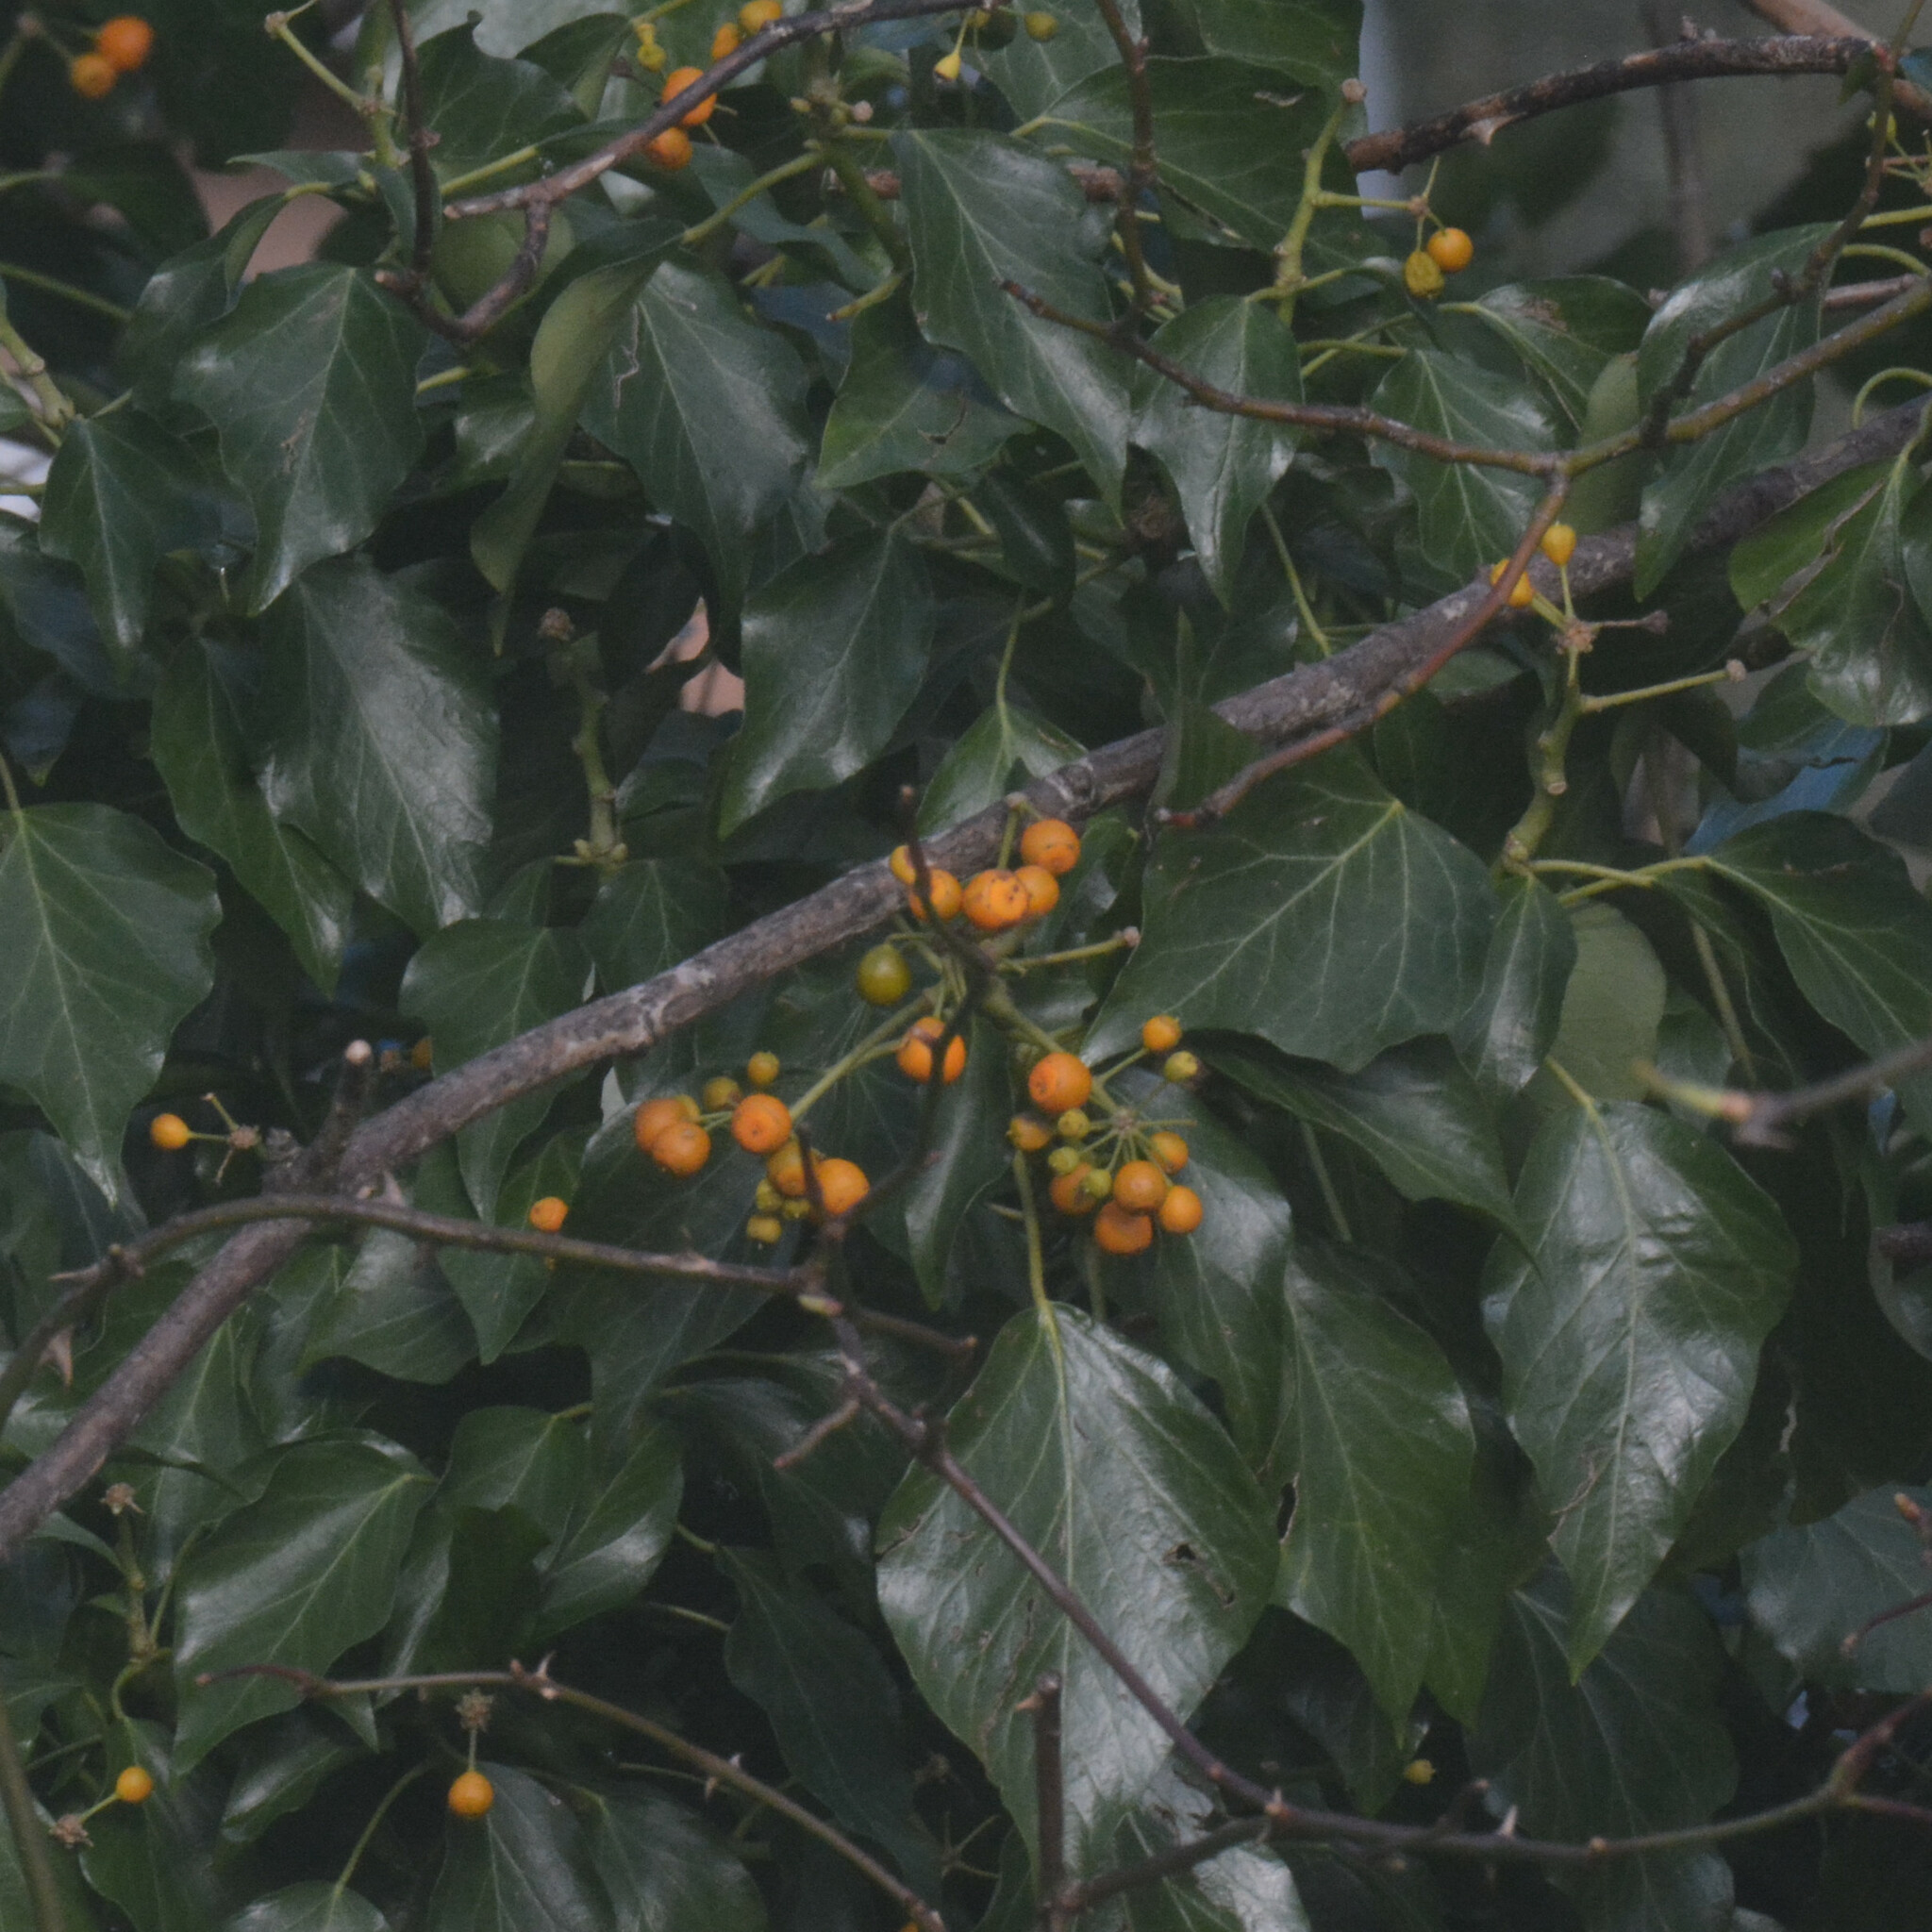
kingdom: Plantae
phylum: Tracheophyta
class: Magnoliopsida
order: Apiales
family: Araliaceae
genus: Hedera
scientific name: Hedera helix
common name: Ivy
